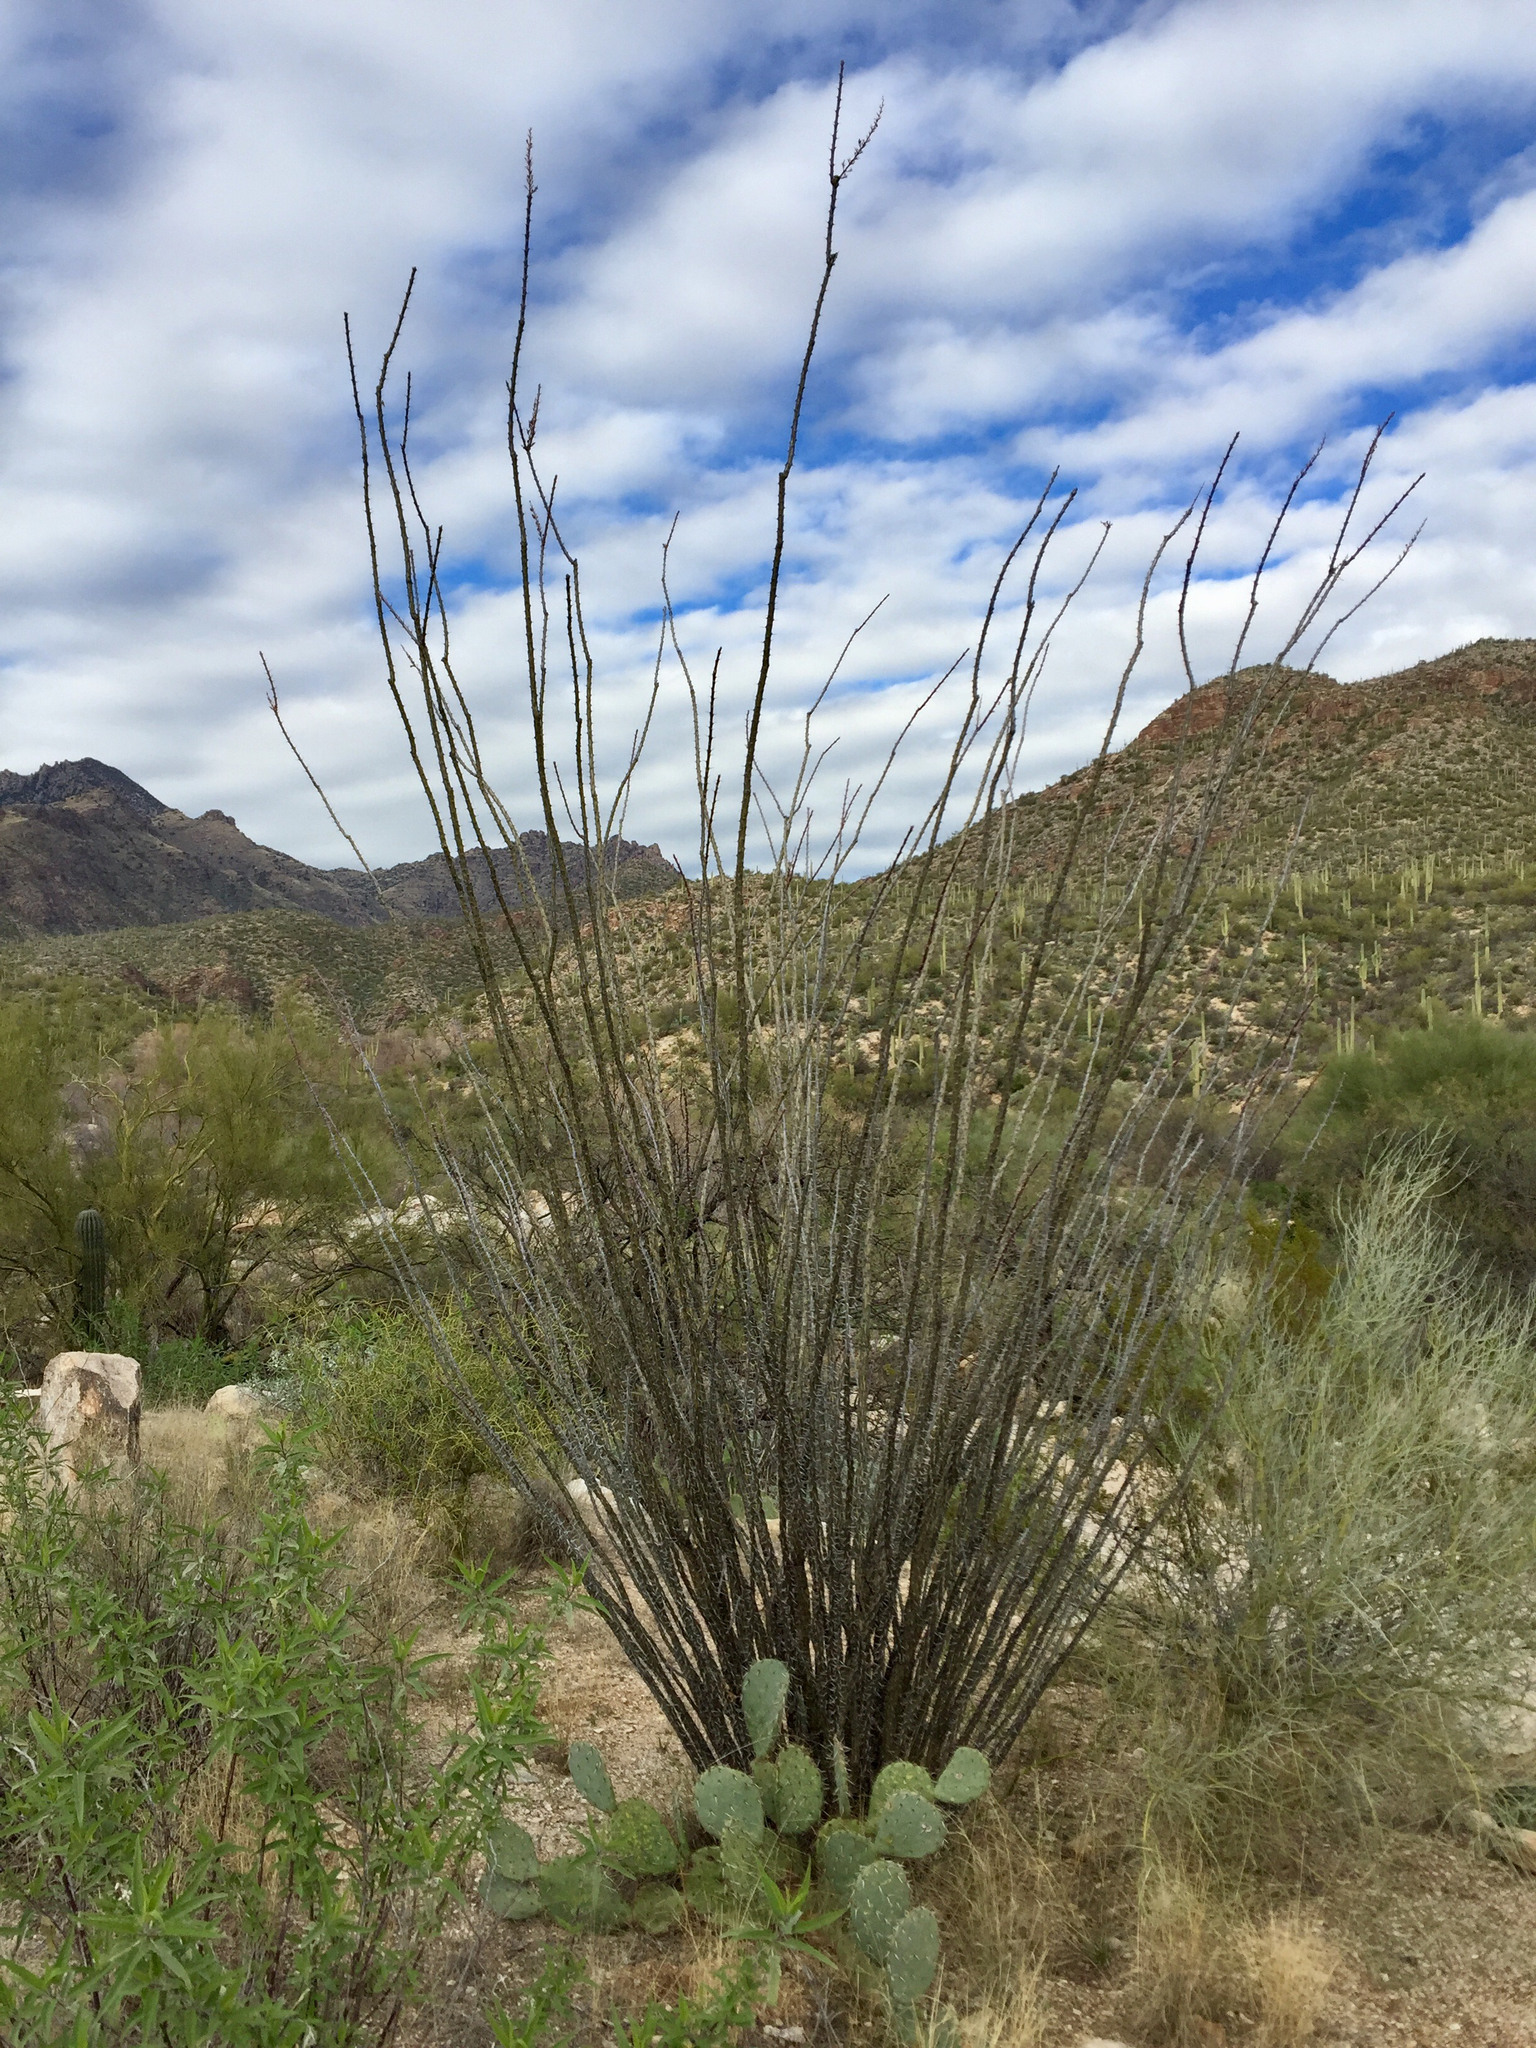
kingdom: Plantae
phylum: Tracheophyta
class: Magnoliopsida
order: Ericales
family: Fouquieriaceae
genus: Fouquieria
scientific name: Fouquieria splendens
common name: Vine-cactus
